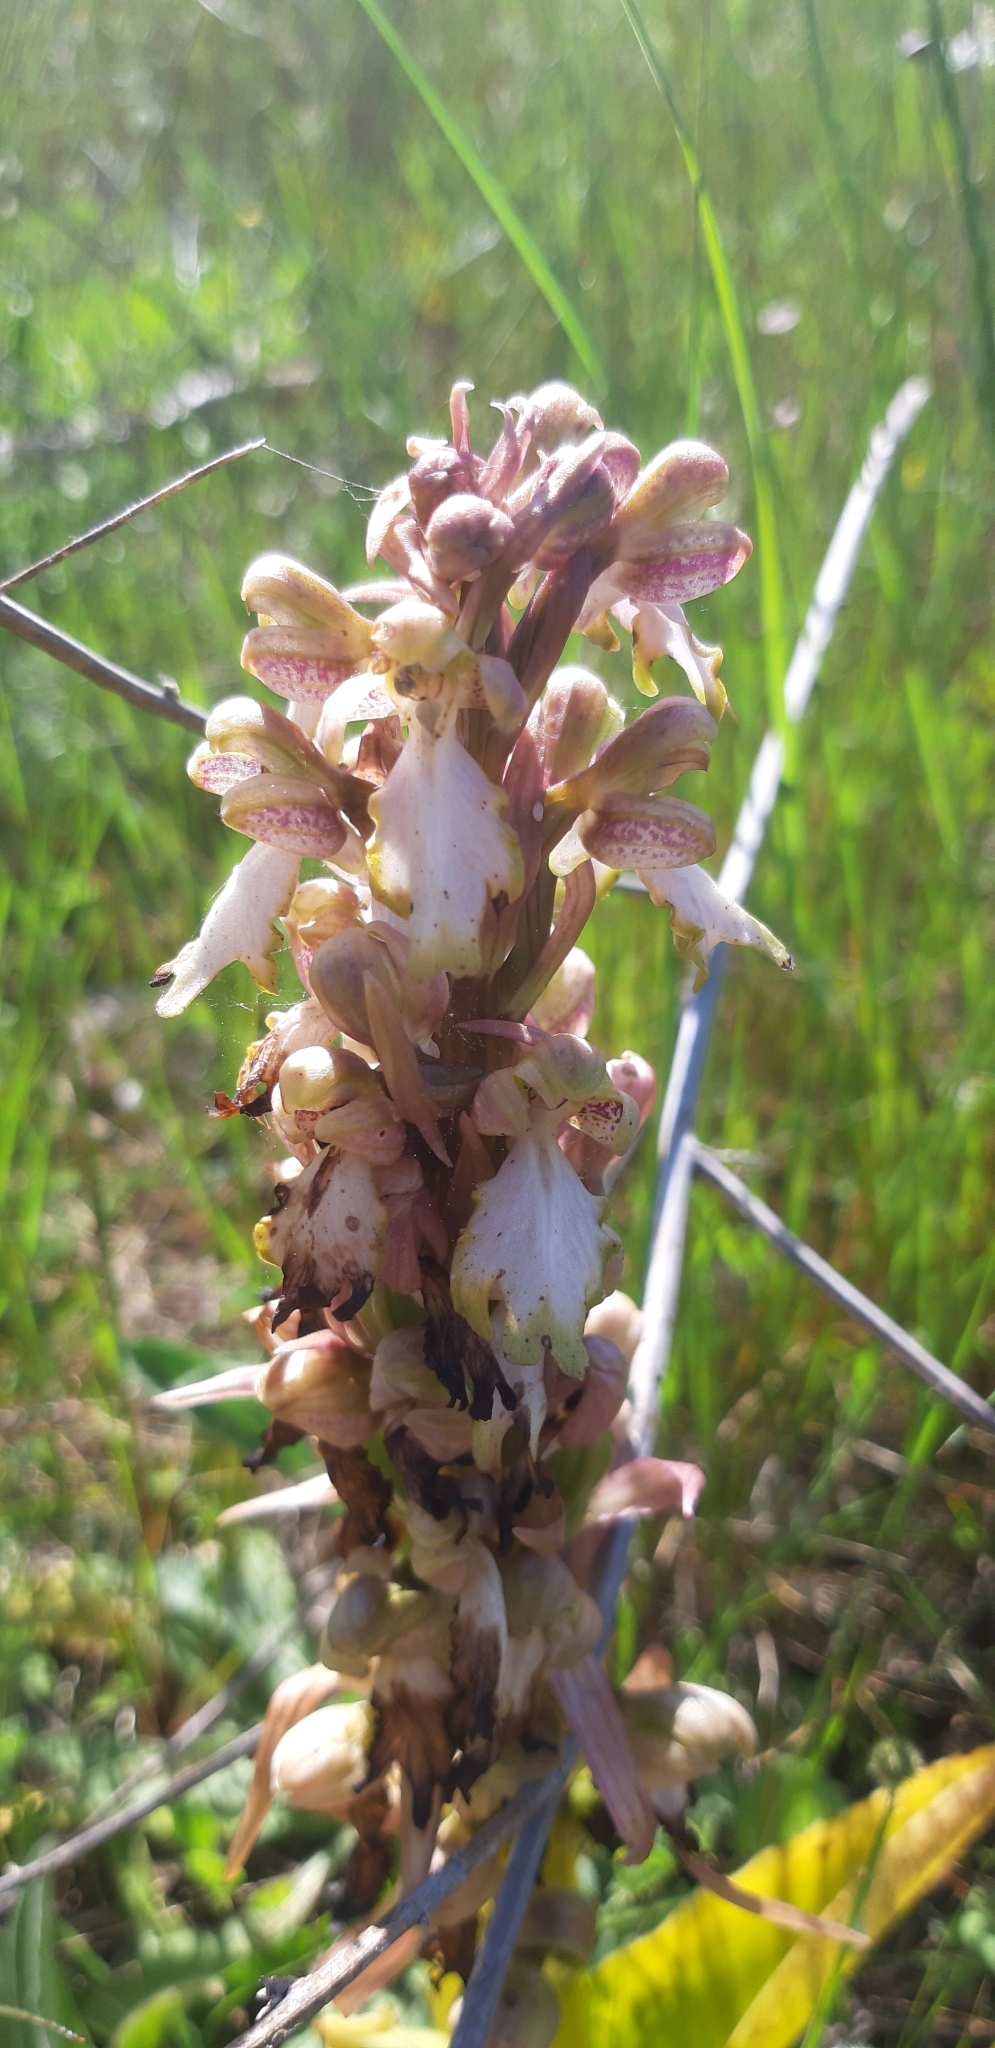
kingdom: Plantae
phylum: Tracheophyta
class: Liliopsida
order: Asparagales
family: Orchidaceae
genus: Himantoglossum
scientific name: Himantoglossum robertianum
